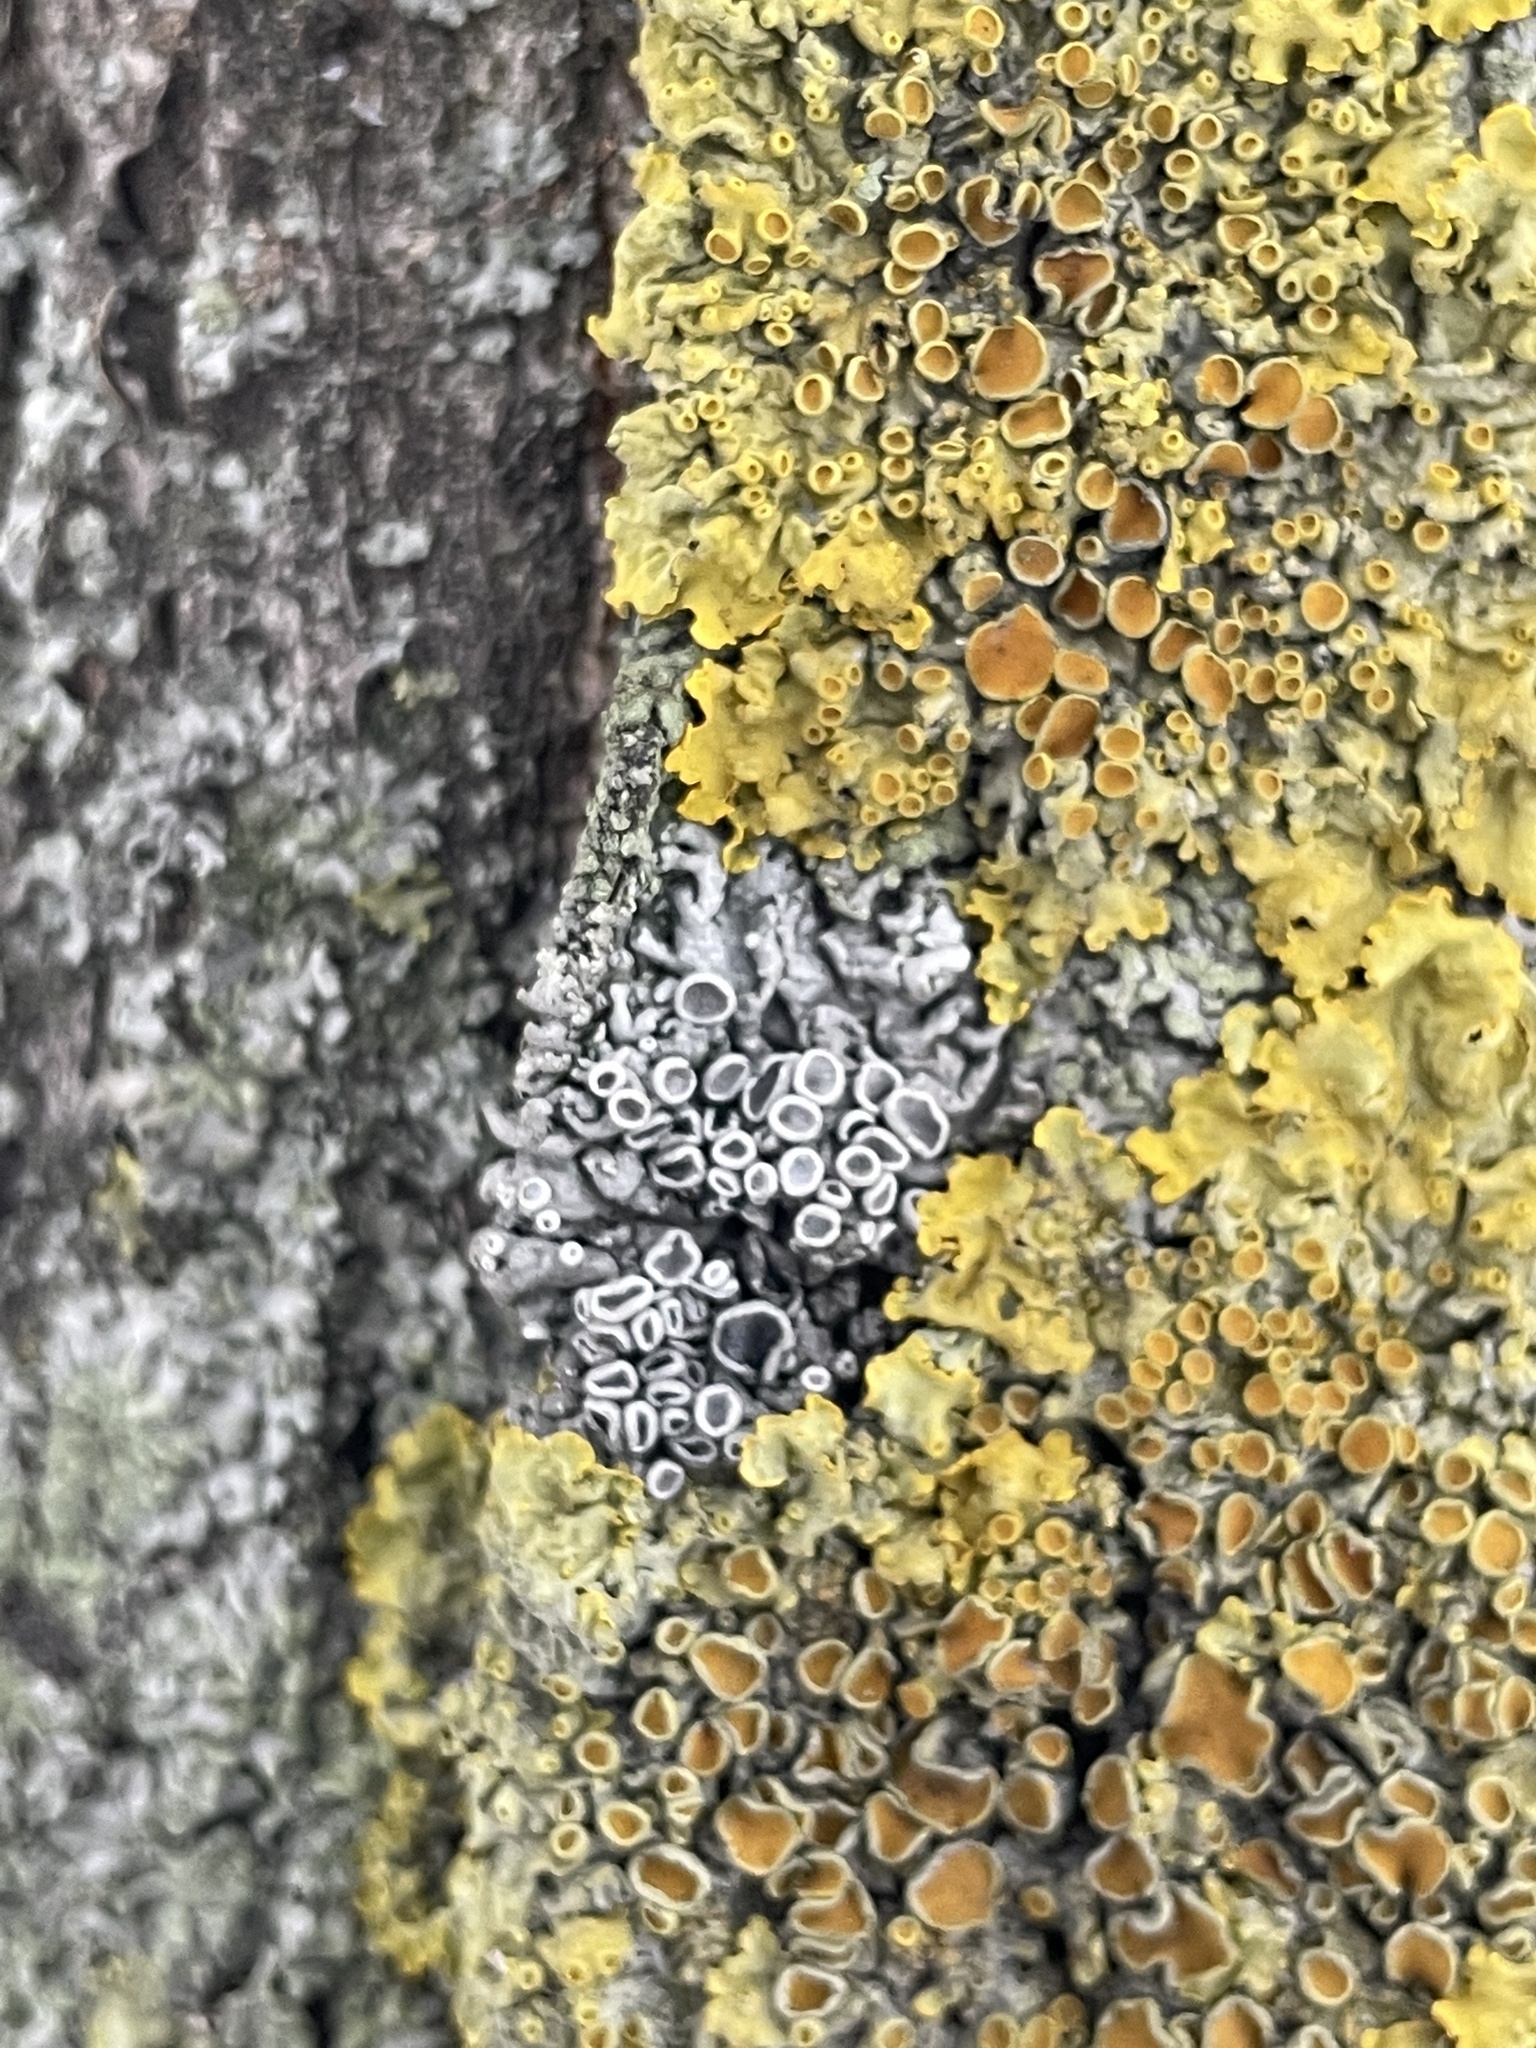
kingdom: Fungi
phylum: Ascomycota
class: Lecanoromycetes
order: Caliciales
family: Physciaceae
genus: Physcia
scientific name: Physcia stellaris
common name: Star rosette lichen
